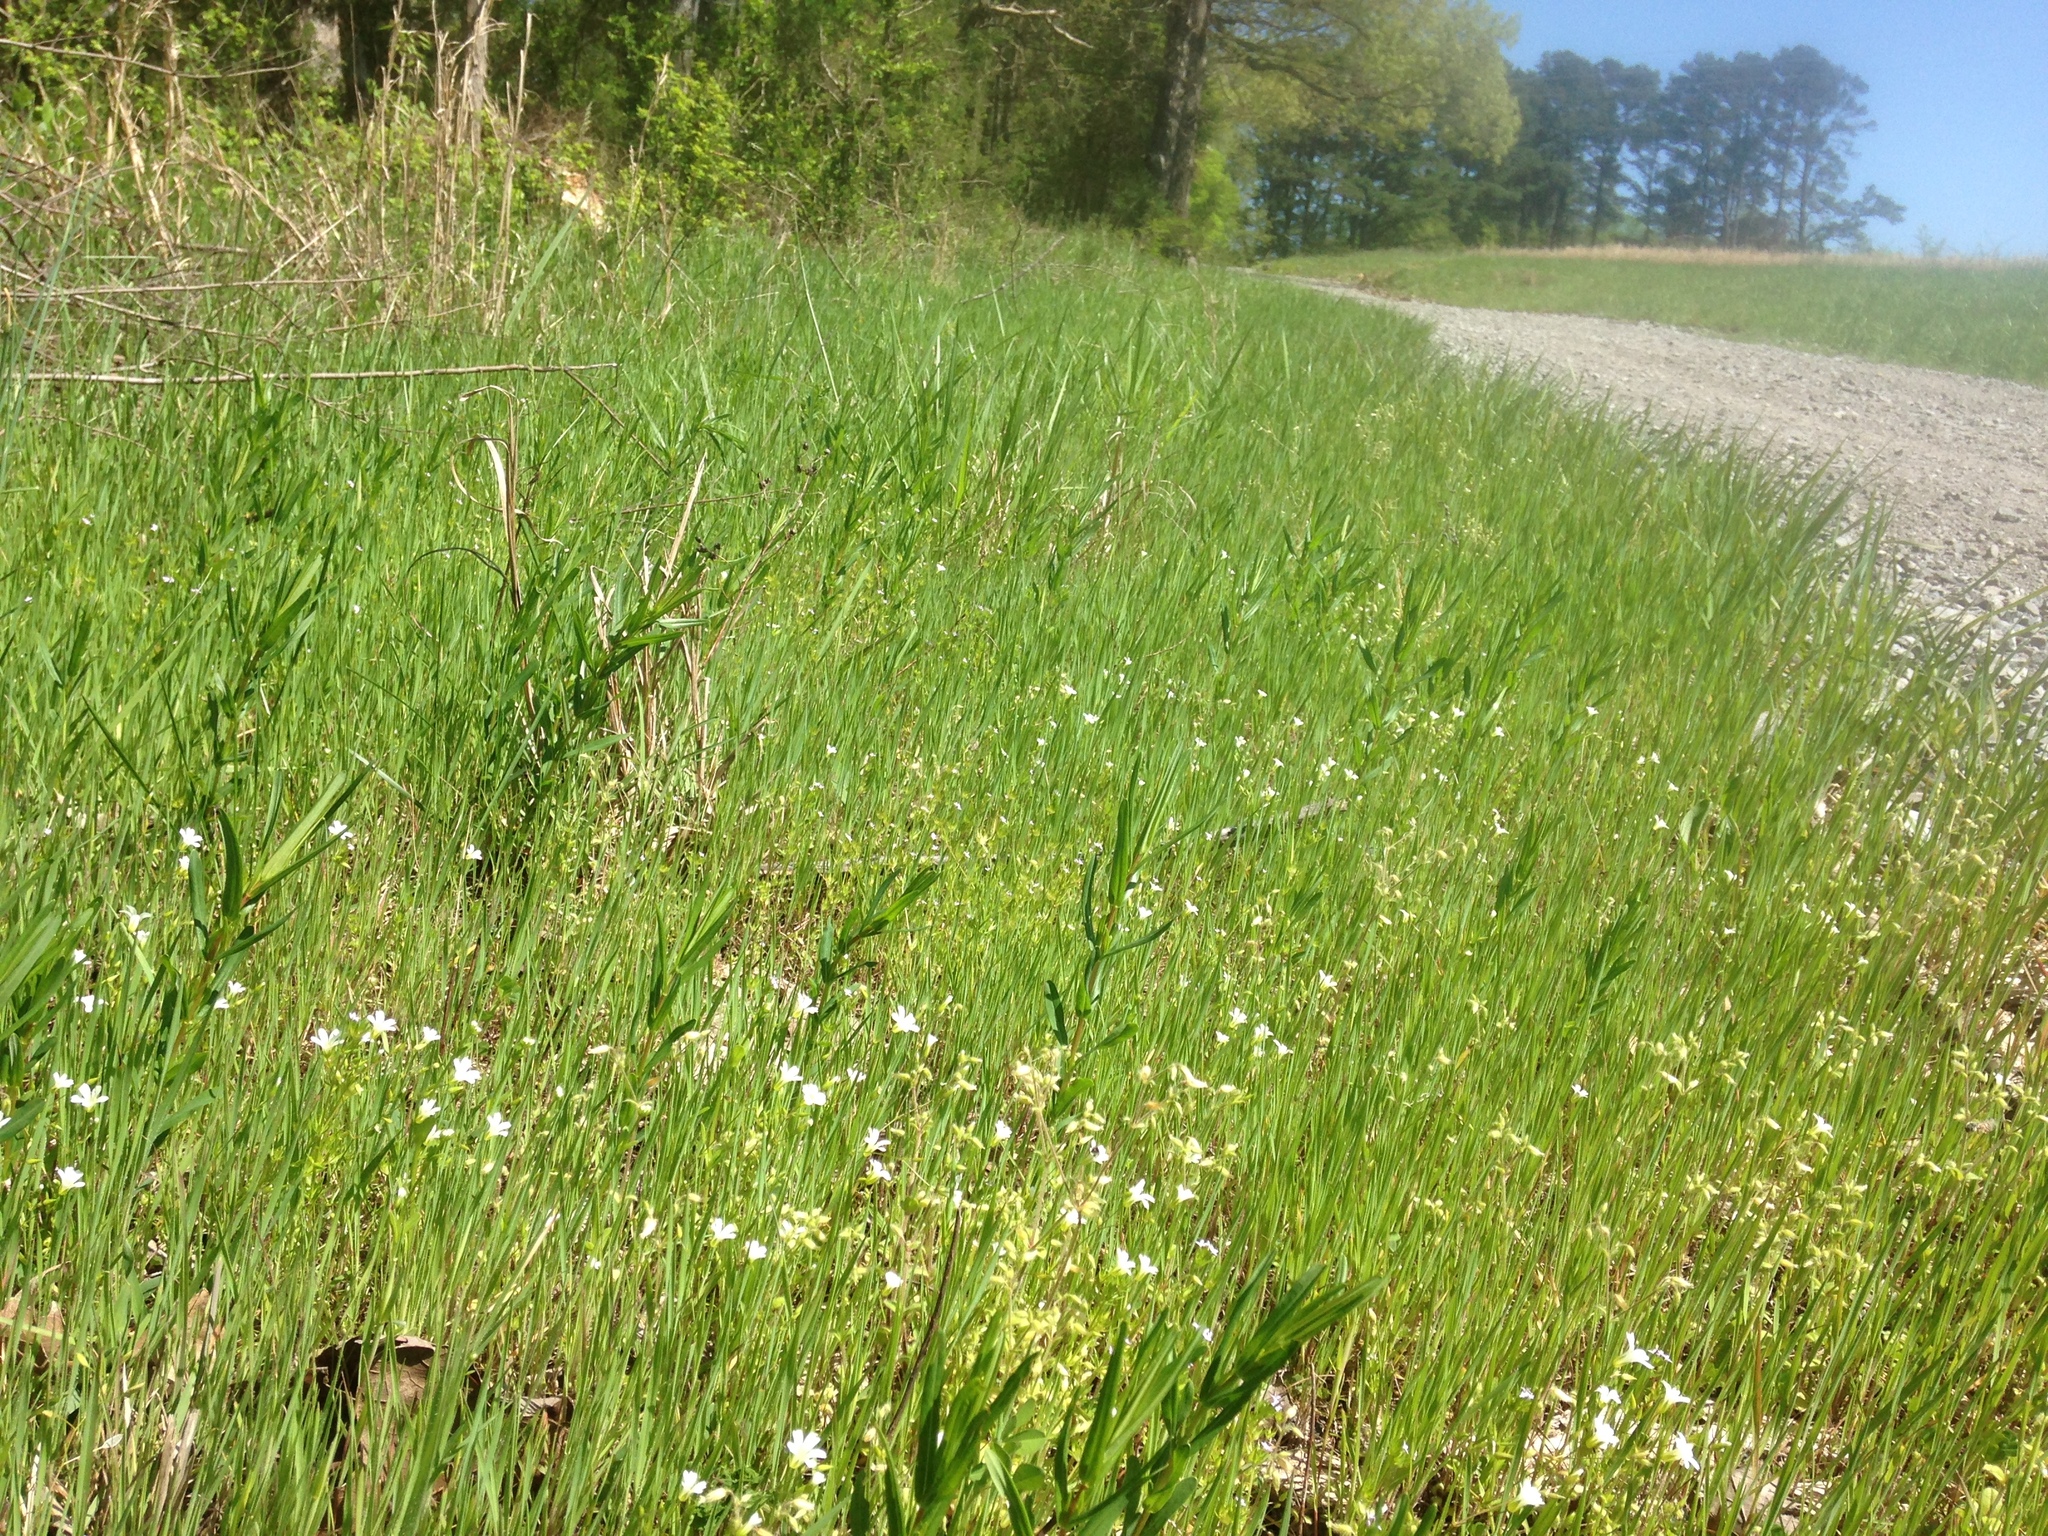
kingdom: Plantae
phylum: Tracheophyta
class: Magnoliopsida
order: Caryophyllales
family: Caryophyllaceae
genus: Mononeuria
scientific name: Mononeuria patula
